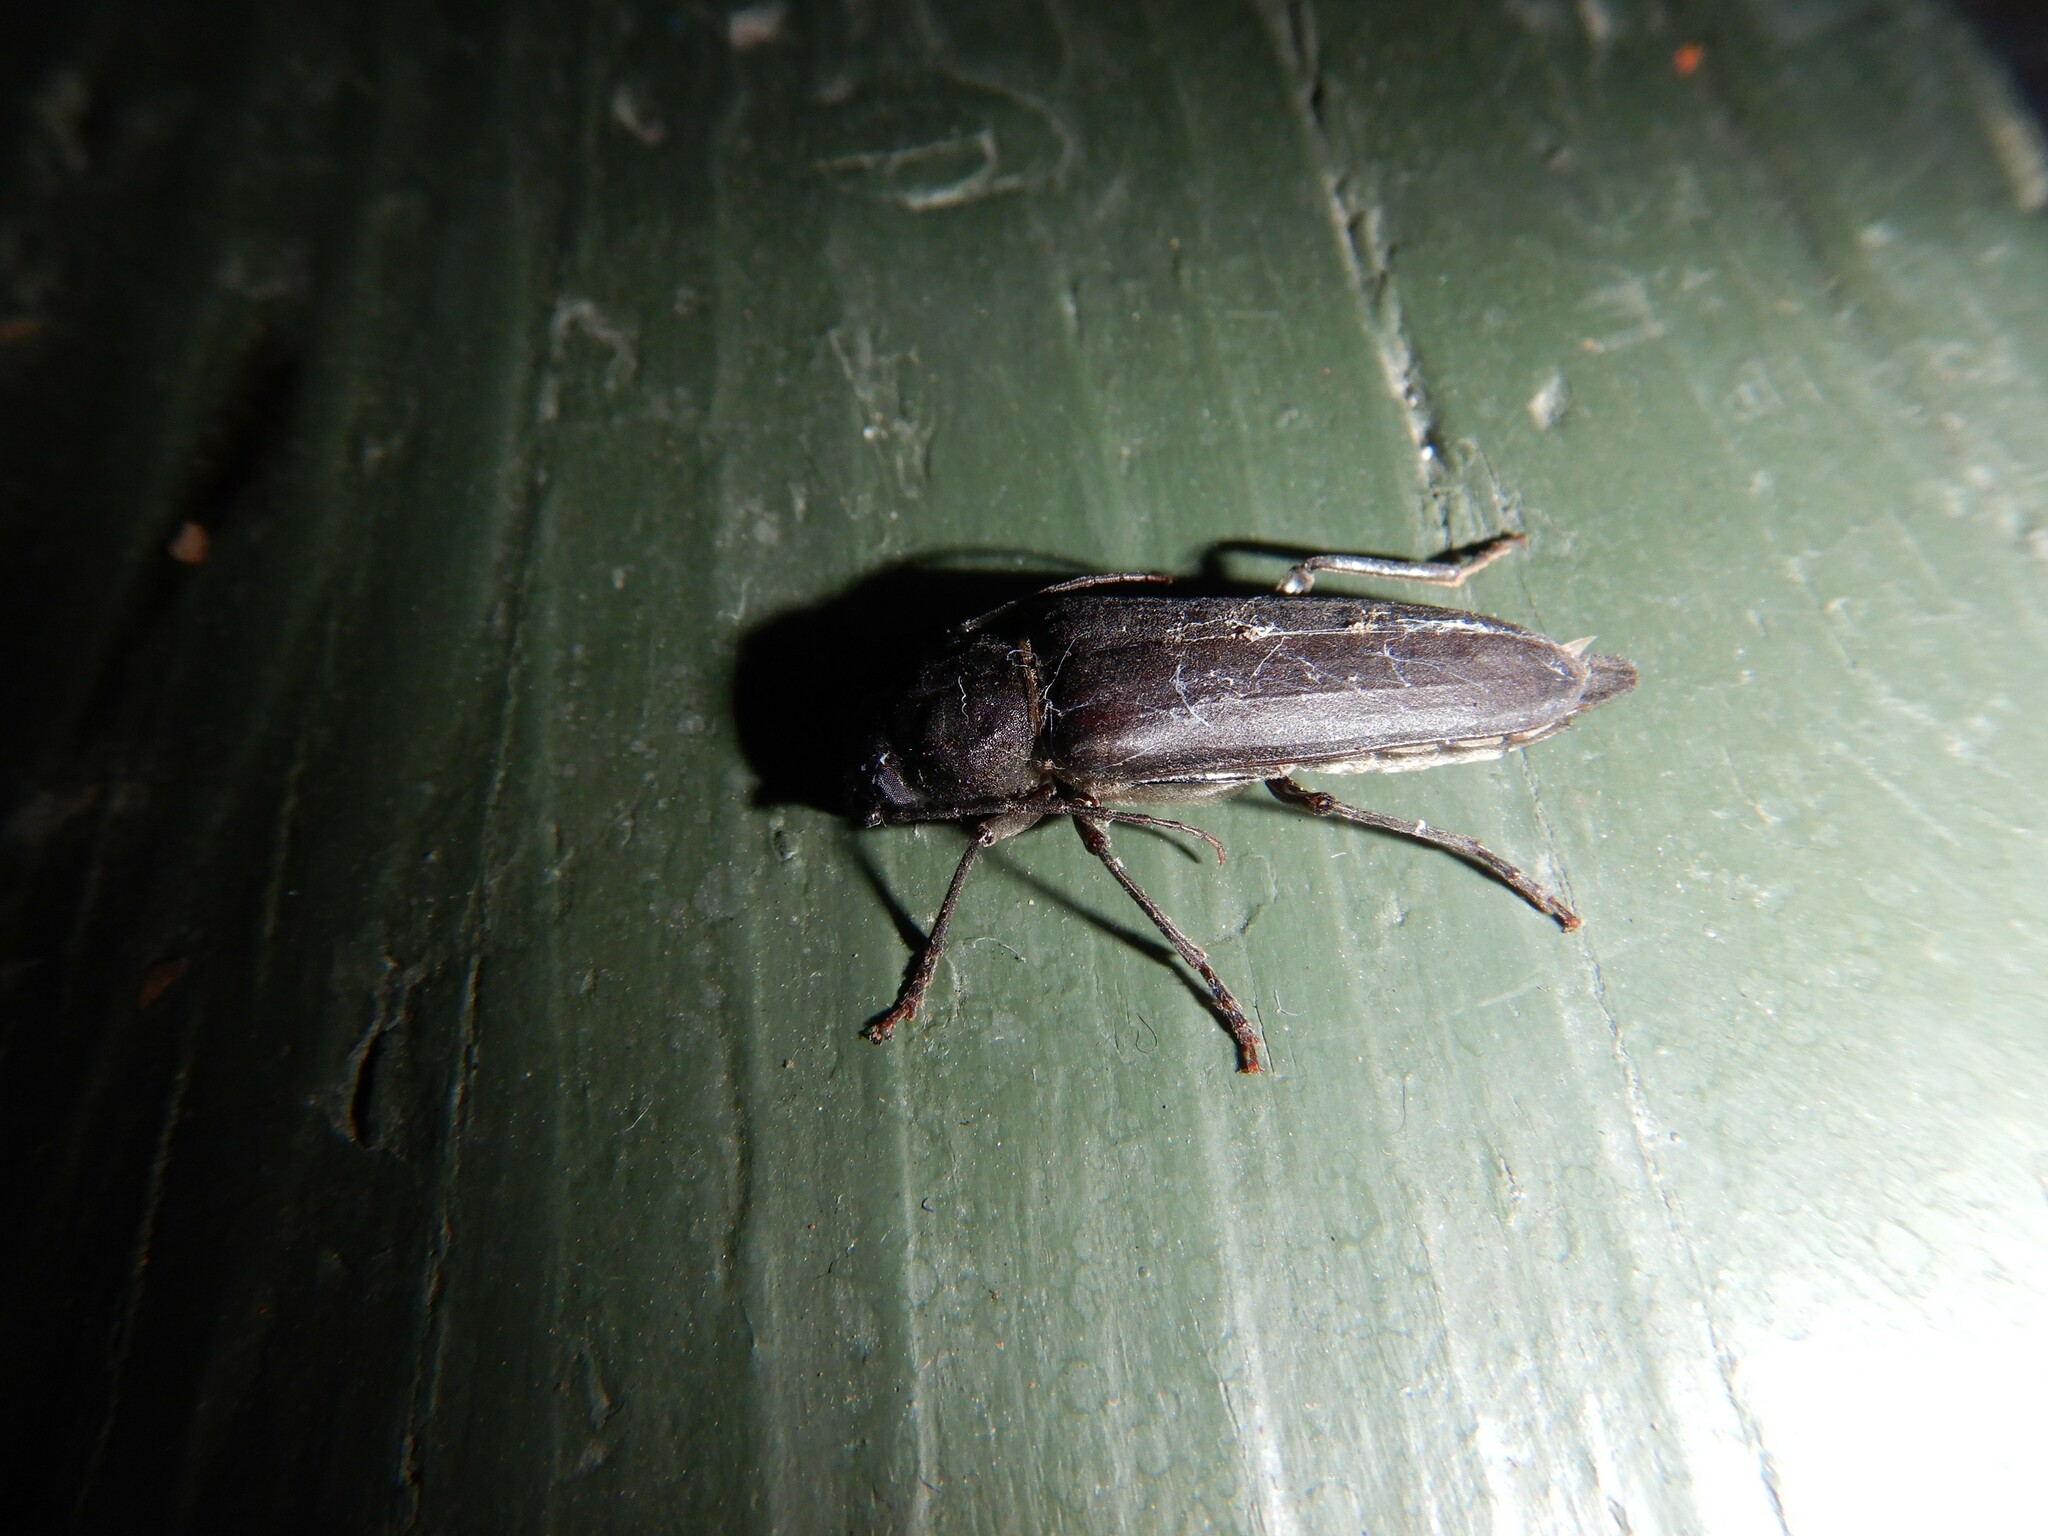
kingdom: Animalia
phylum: Arthropoda
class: Insecta
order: Coleoptera
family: Cerambycidae
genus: Arhopalus
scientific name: Arhopalus ferus
